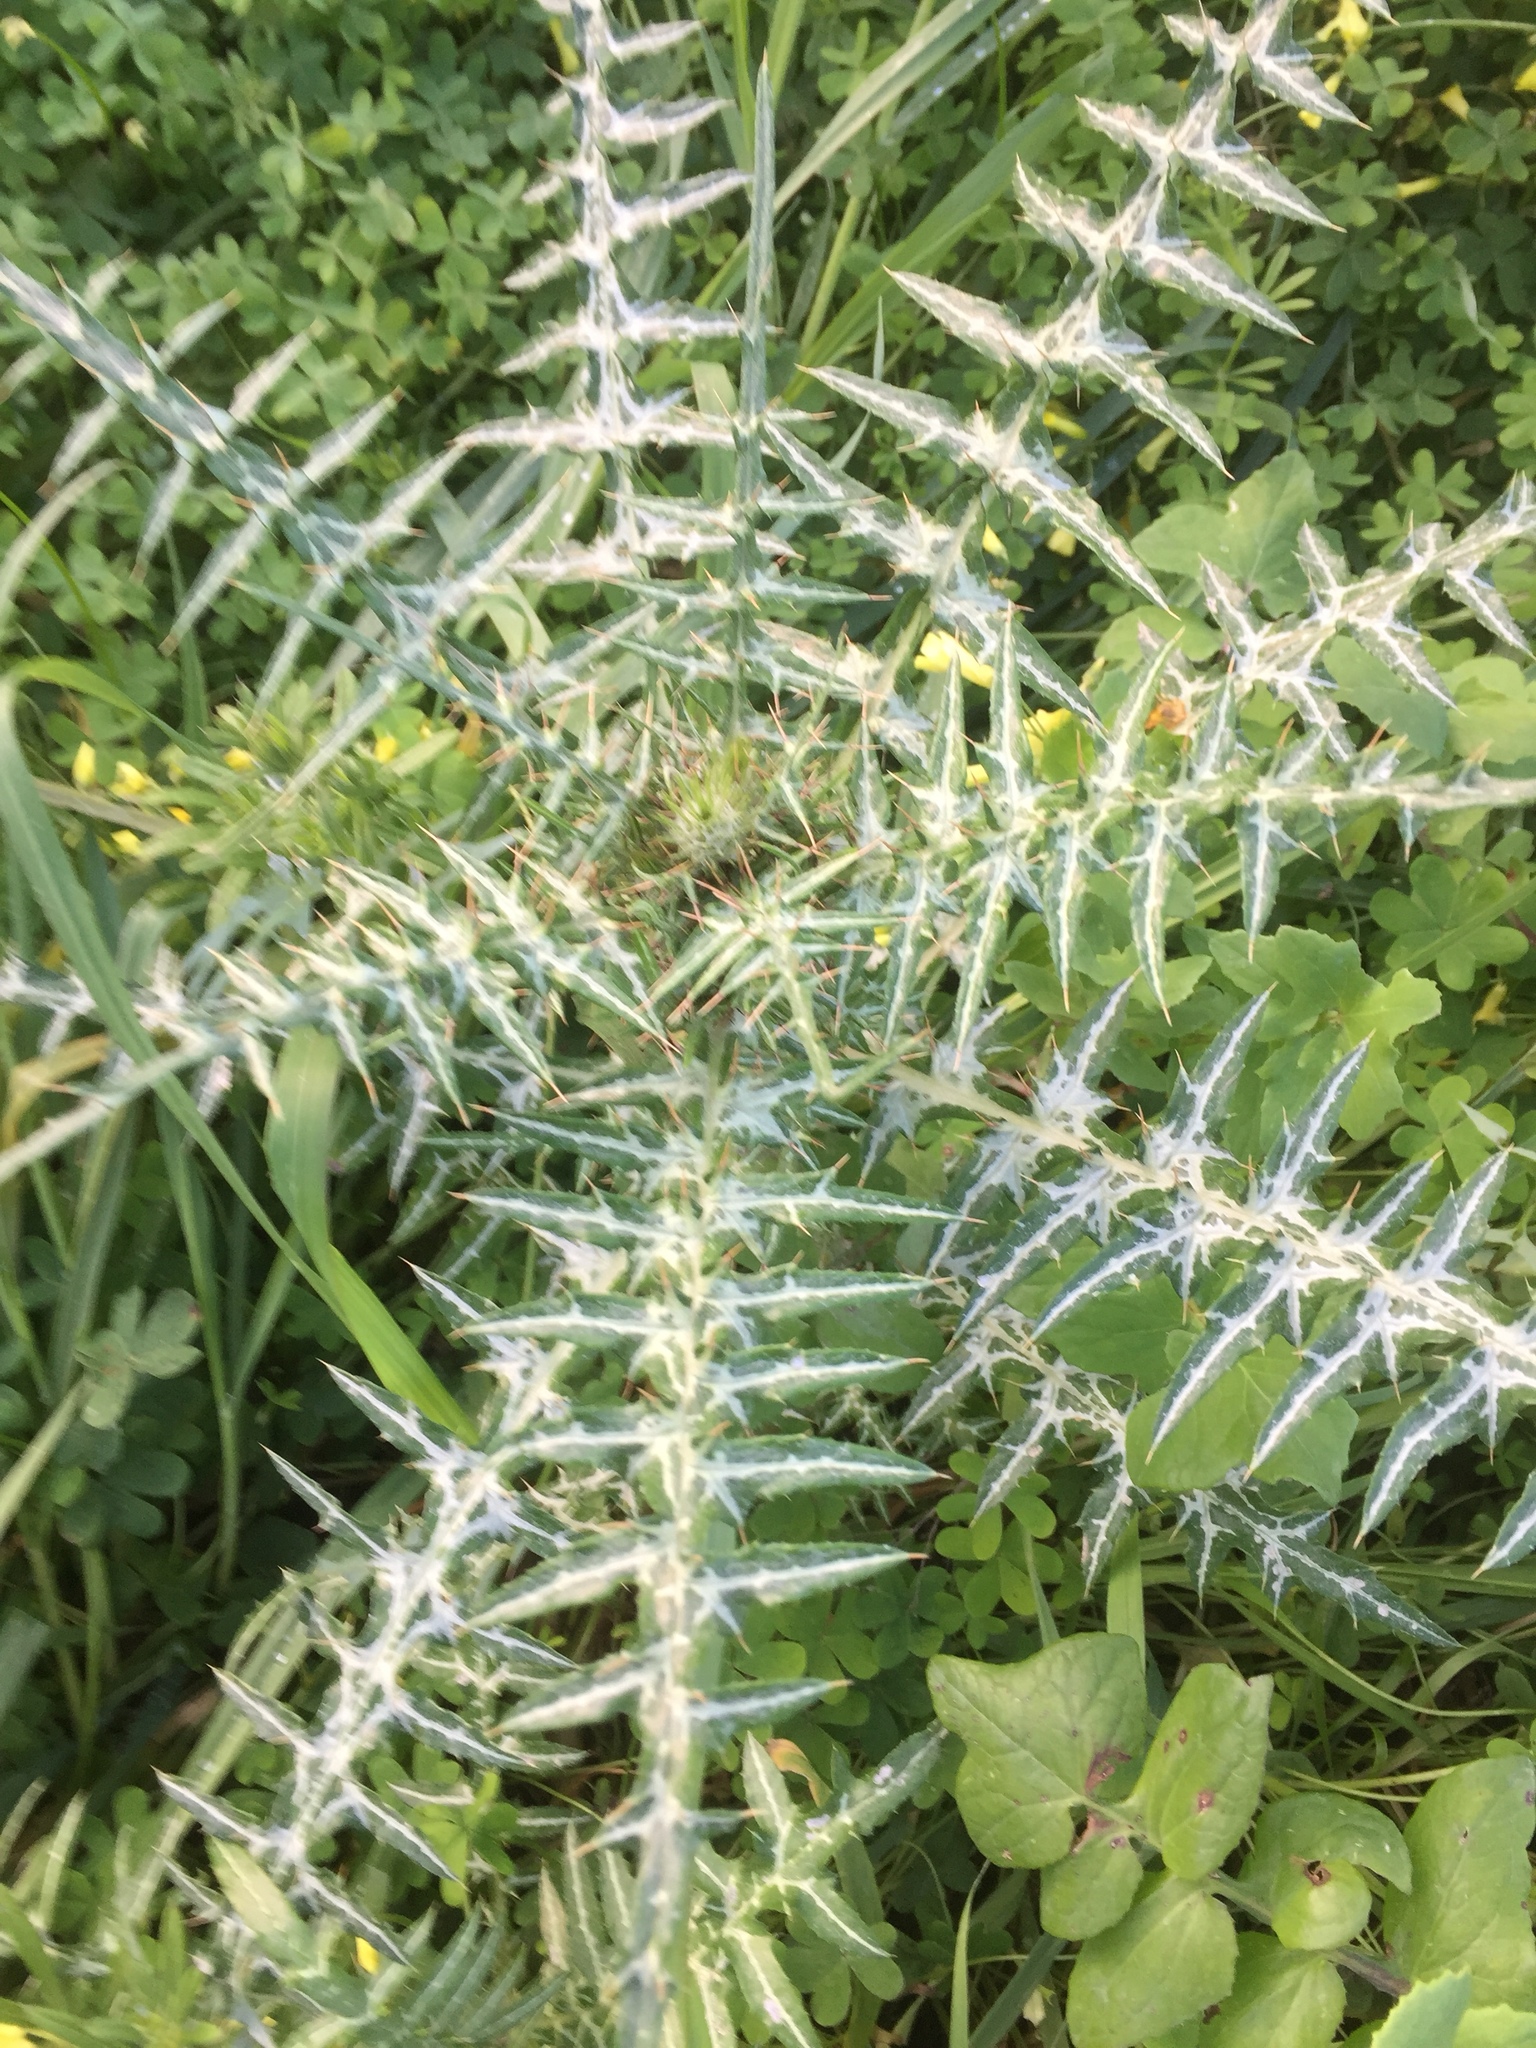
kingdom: Plantae
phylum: Tracheophyta
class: Magnoliopsida
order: Asterales
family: Asteraceae
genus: Galactites
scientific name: Galactites tomentosa
